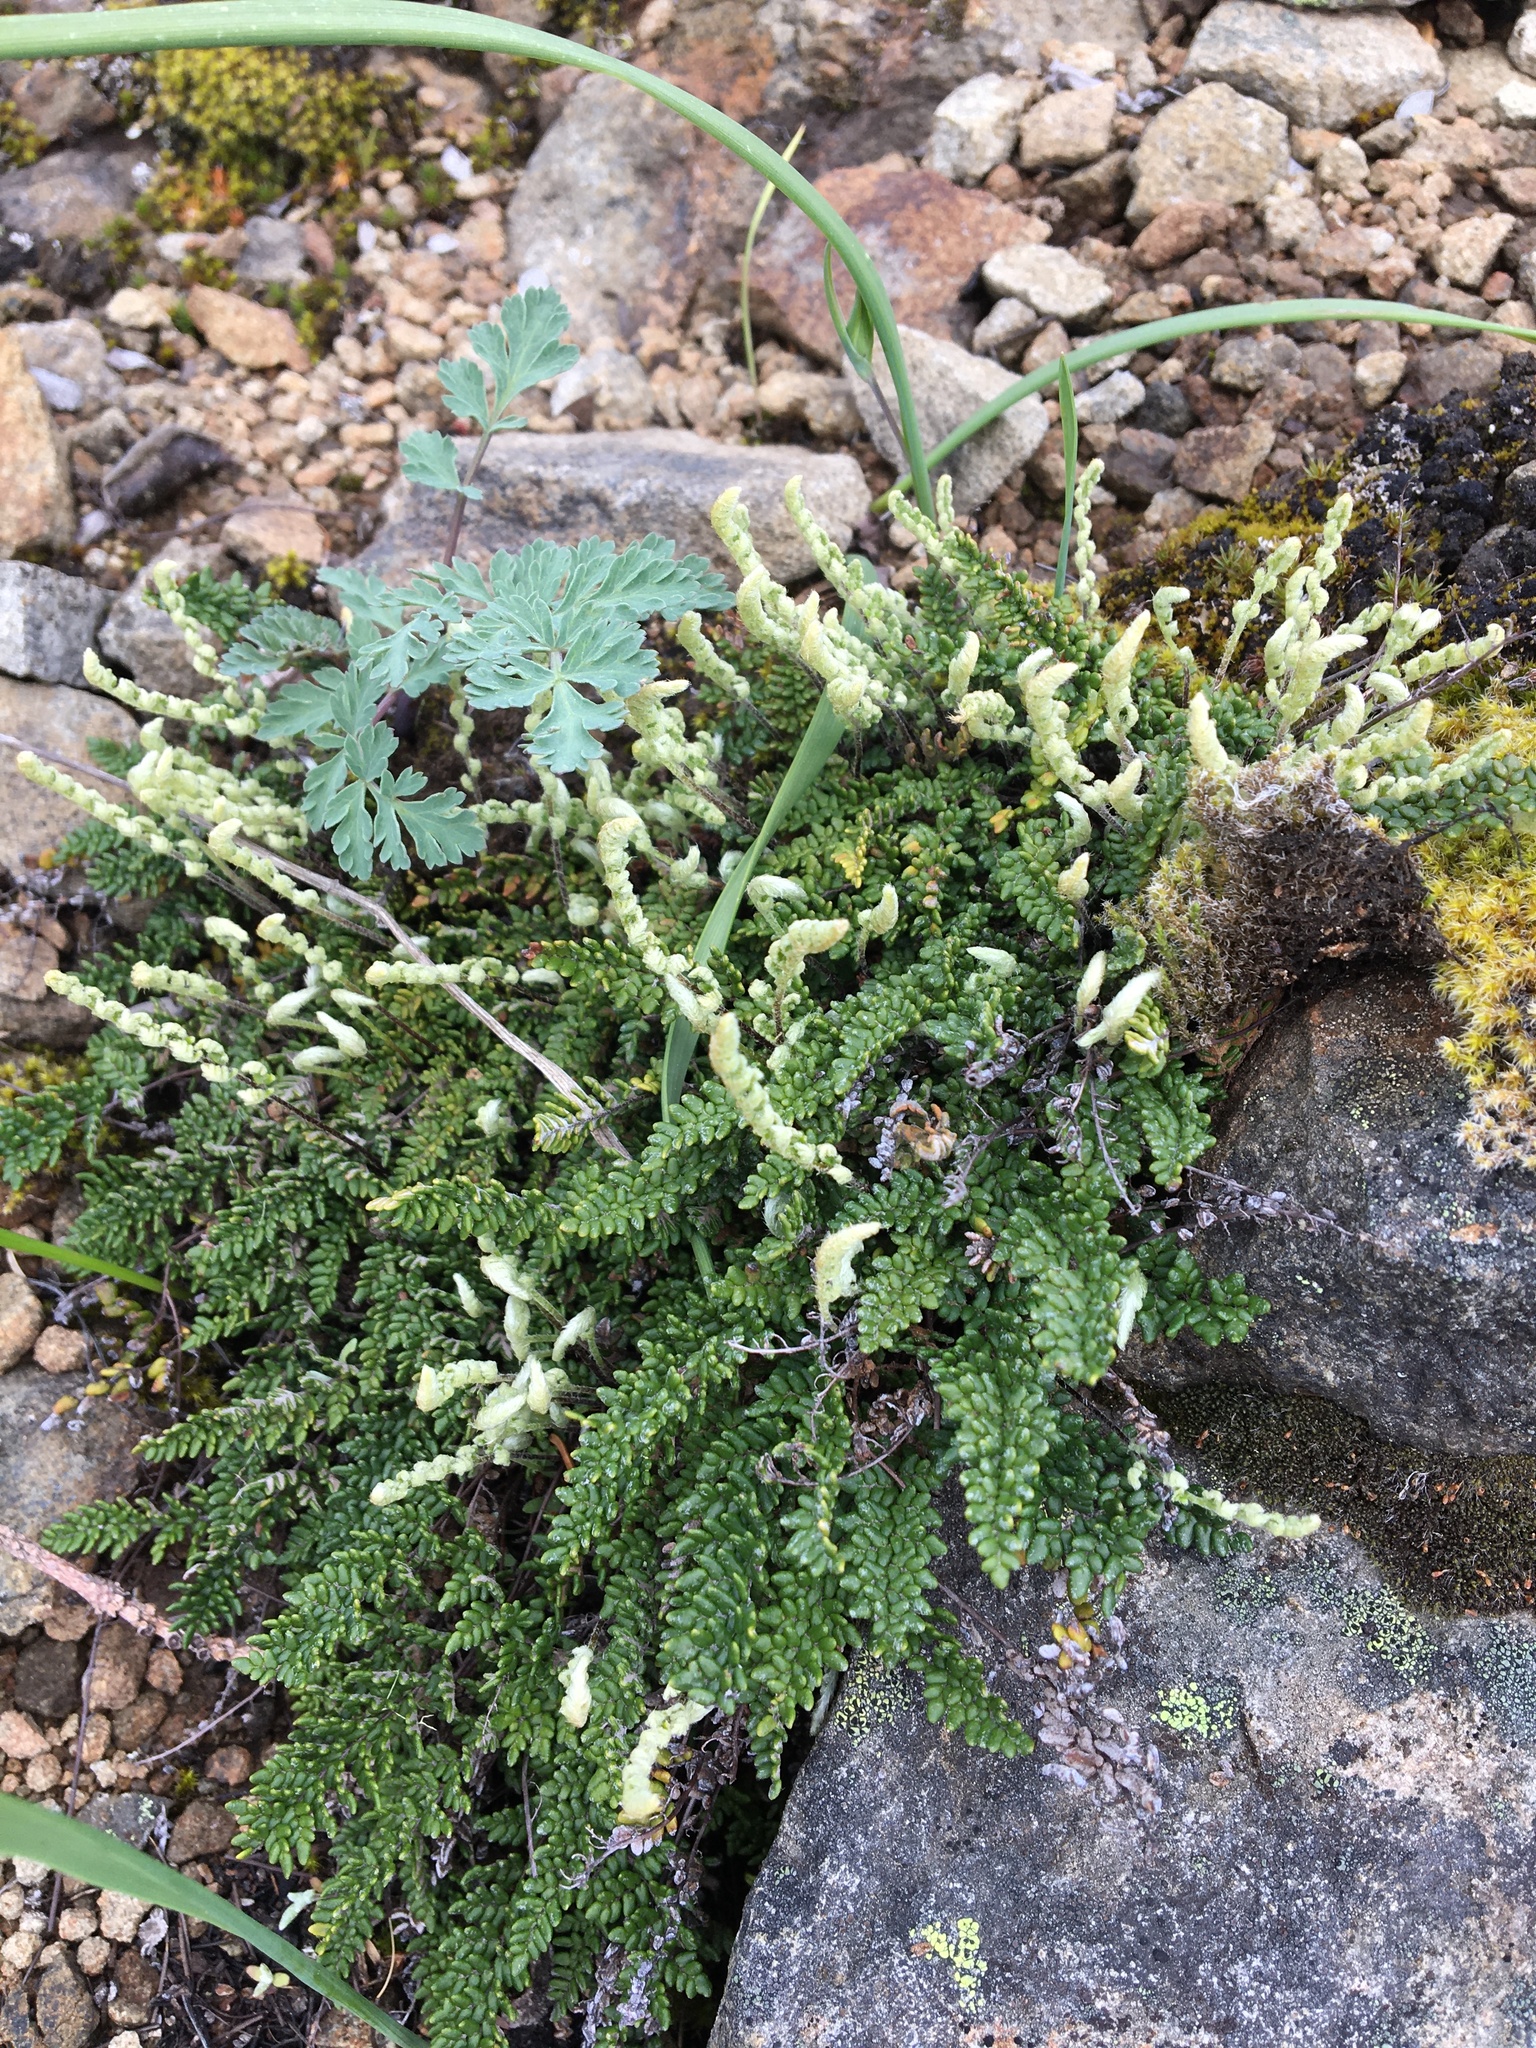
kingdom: Plantae
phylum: Tracheophyta
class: Polypodiopsida
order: Polypodiales
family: Pteridaceae
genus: Myriopteris
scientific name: Myriopteris gracillima
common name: Lace fern
